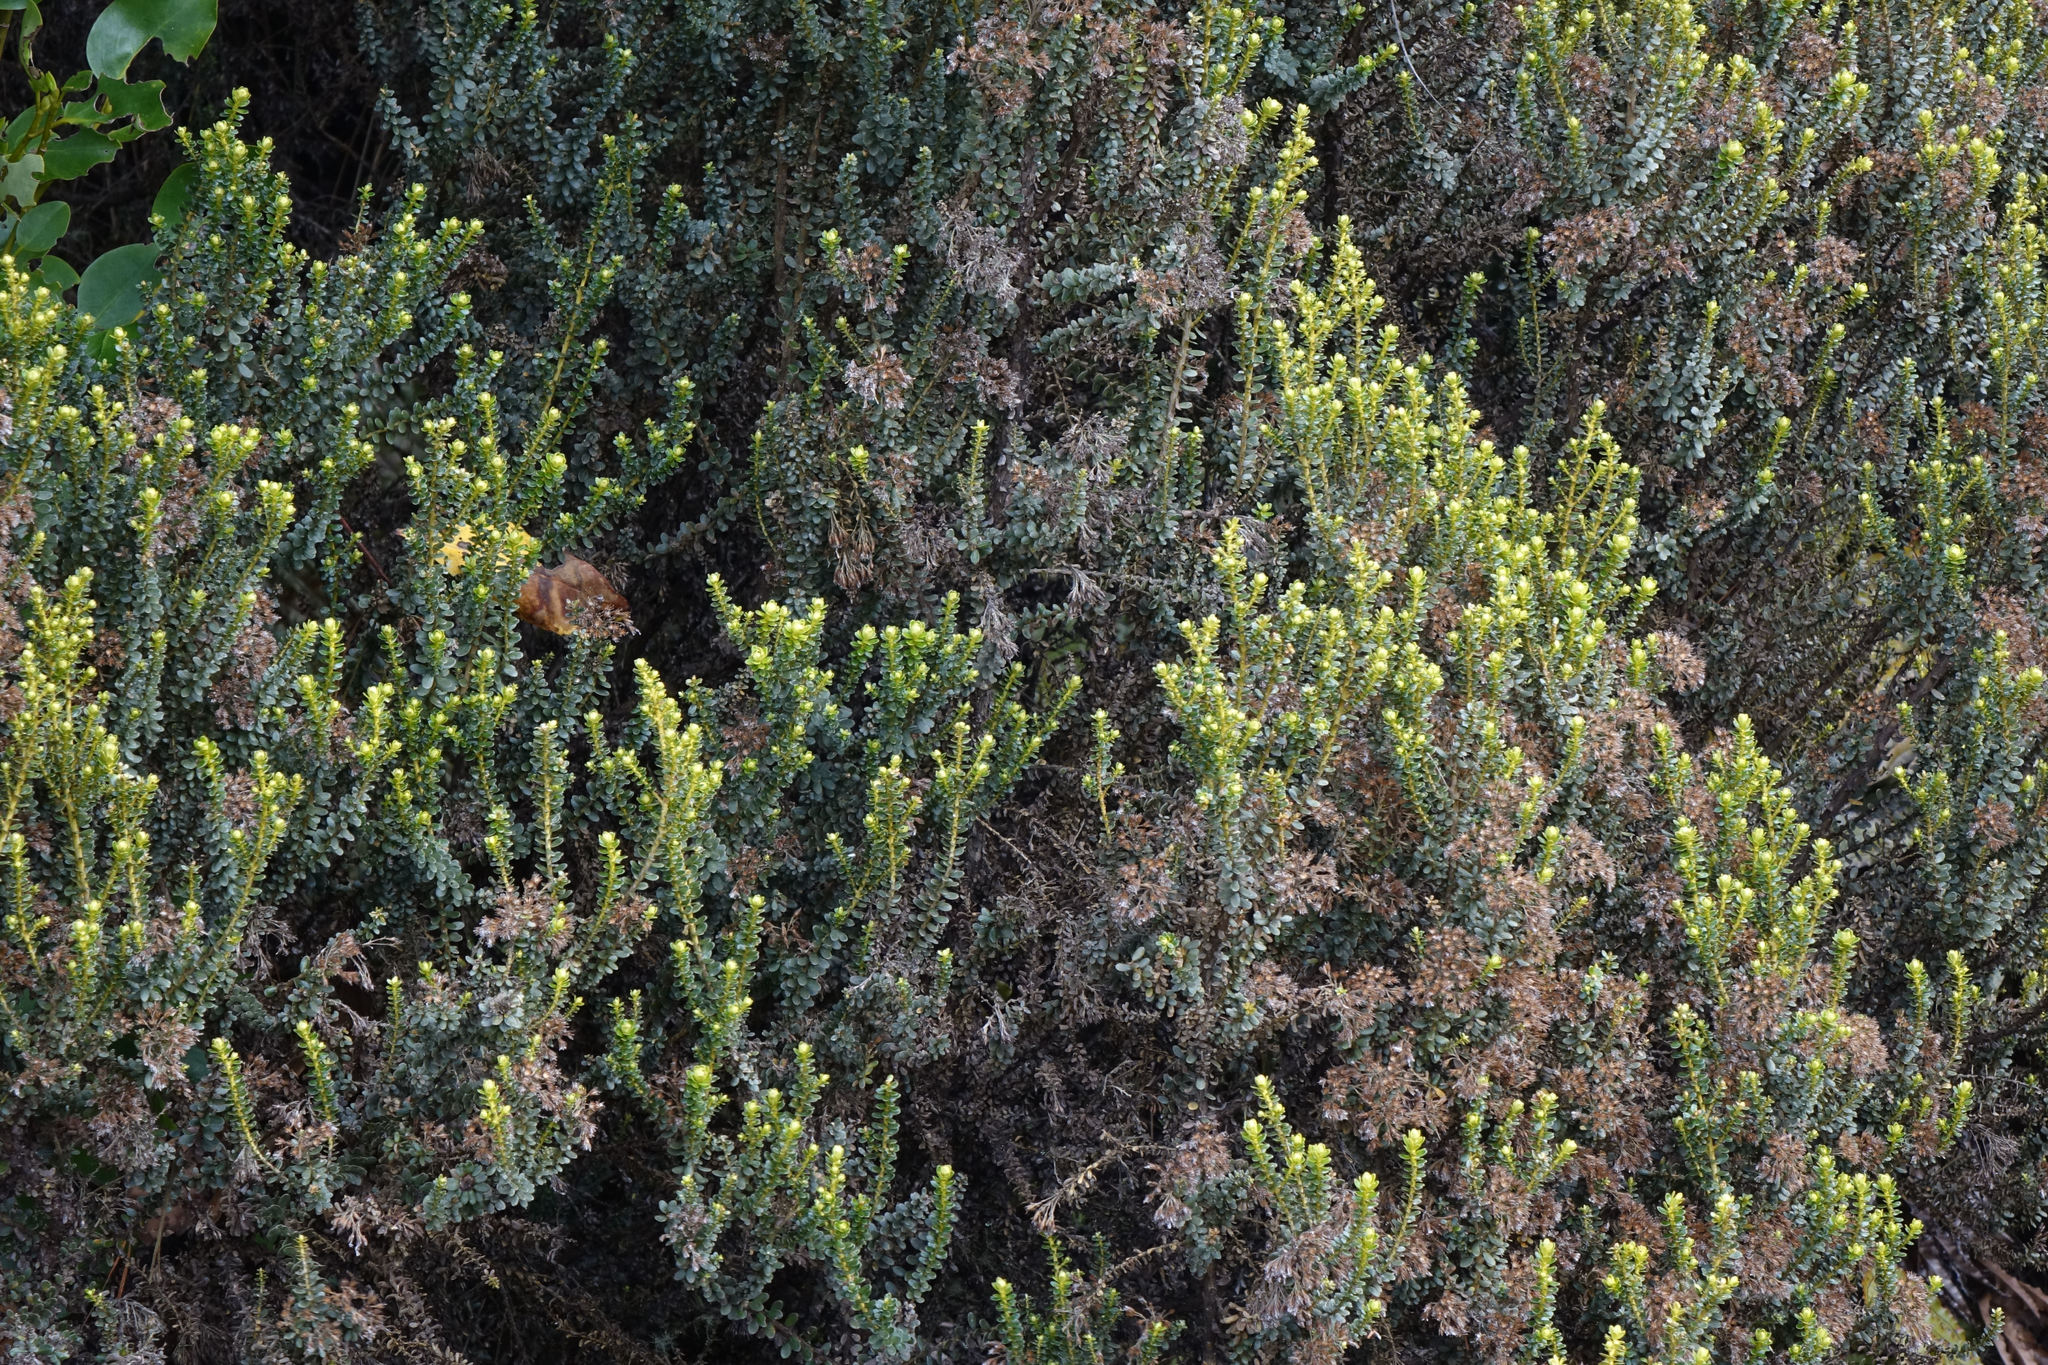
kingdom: Plantae
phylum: Tracheophyta
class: Magnoliopsida
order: Asterales
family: Asteraceae
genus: Ozothamnus
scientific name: Ozothamnus leptophyllus
